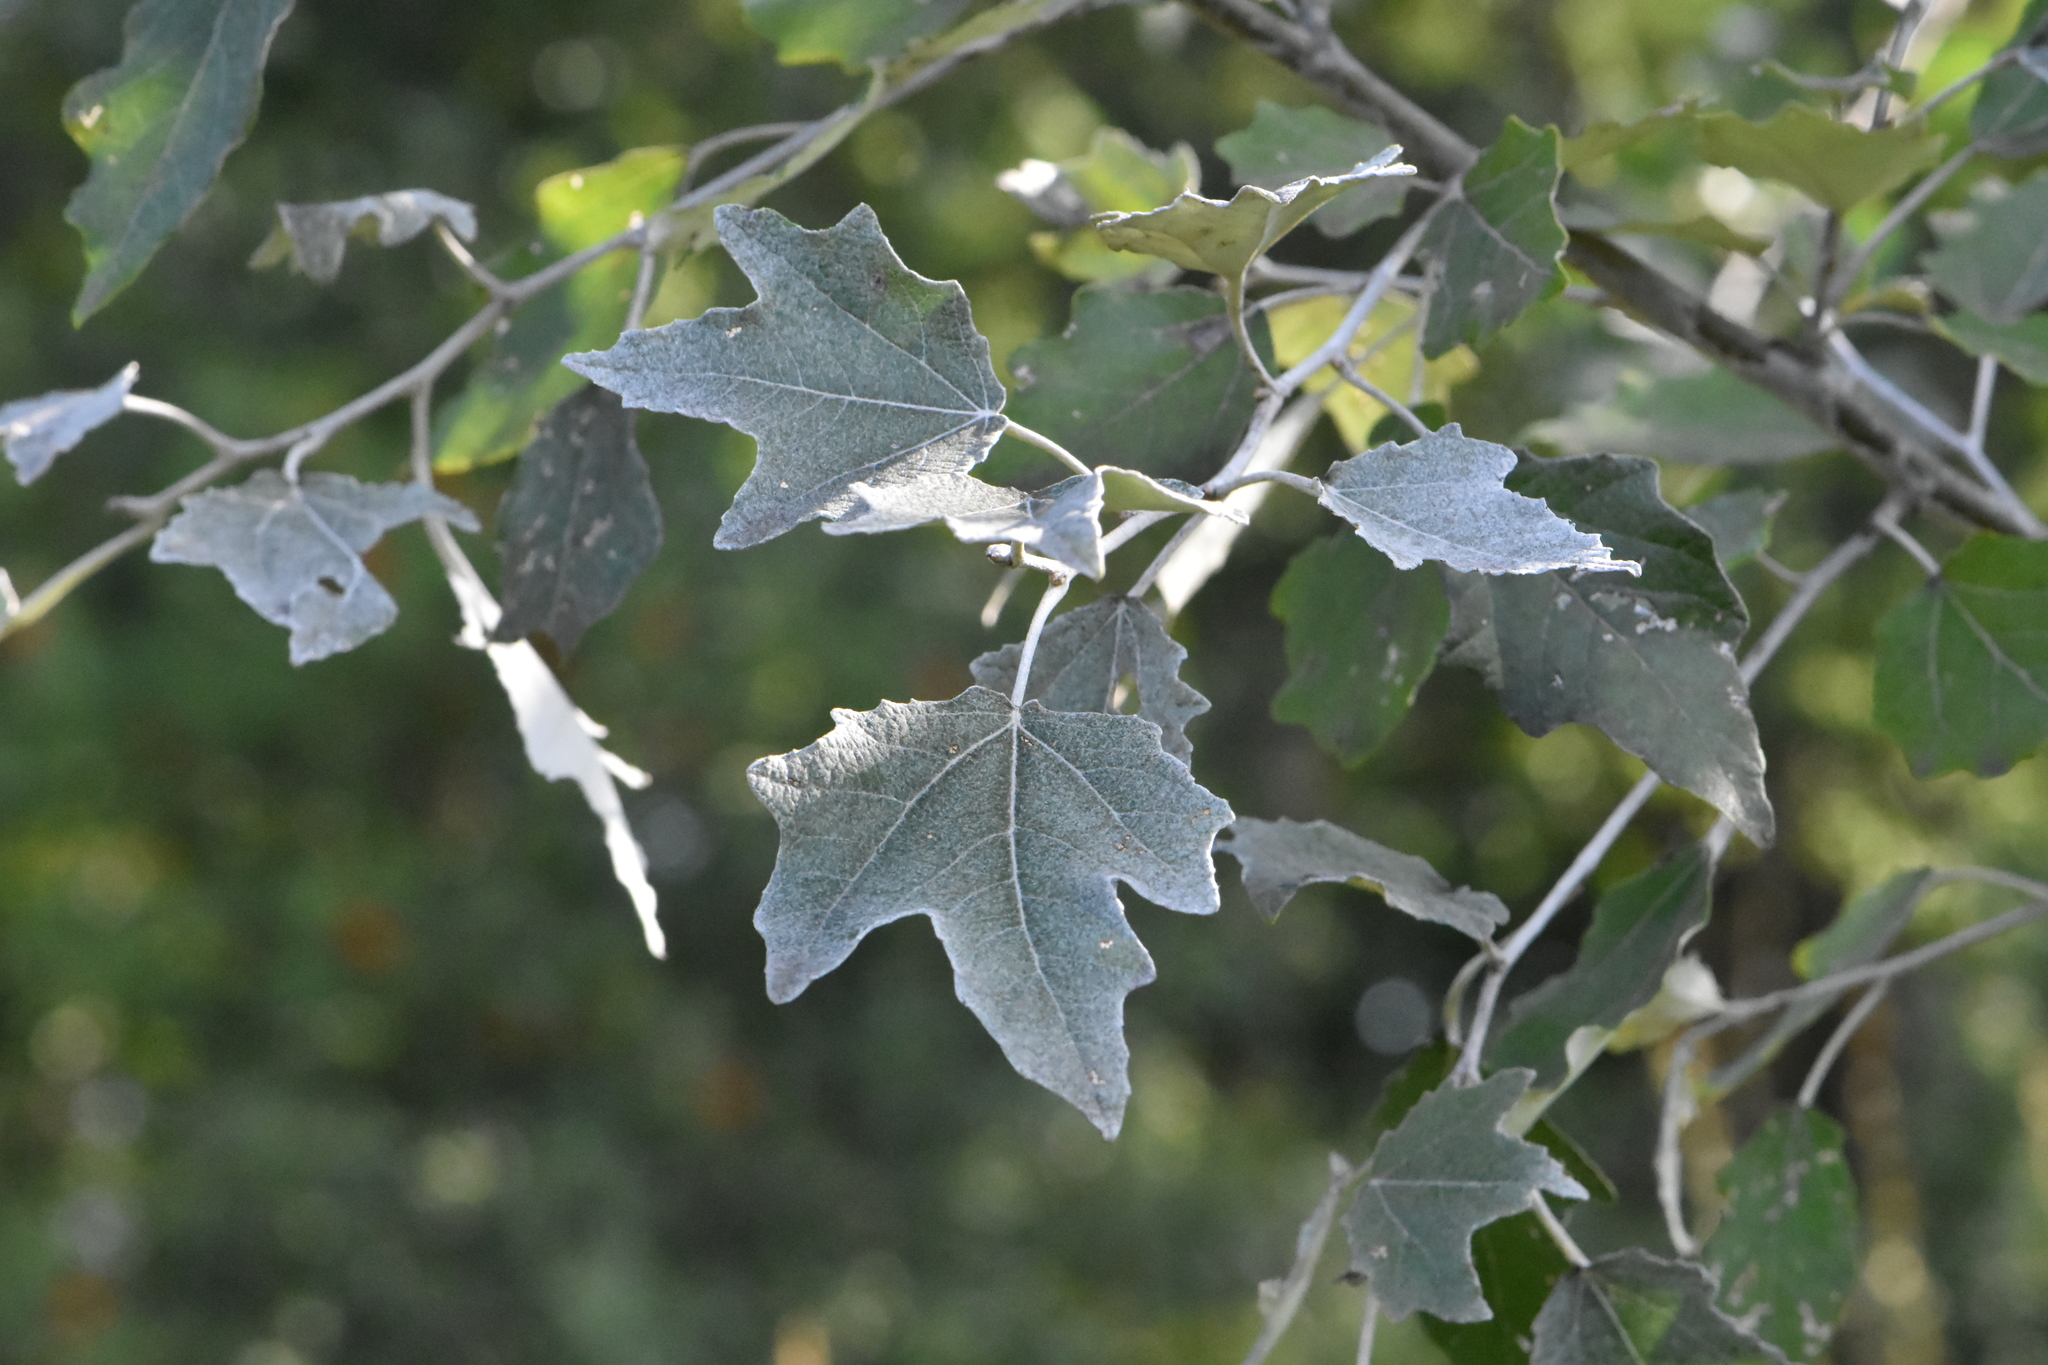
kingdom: Plantae
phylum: Tracheophyta
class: Magnoliopsida
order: Malpighiales
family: Salicaceae
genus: Populus
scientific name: Populus alba
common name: White poplar
